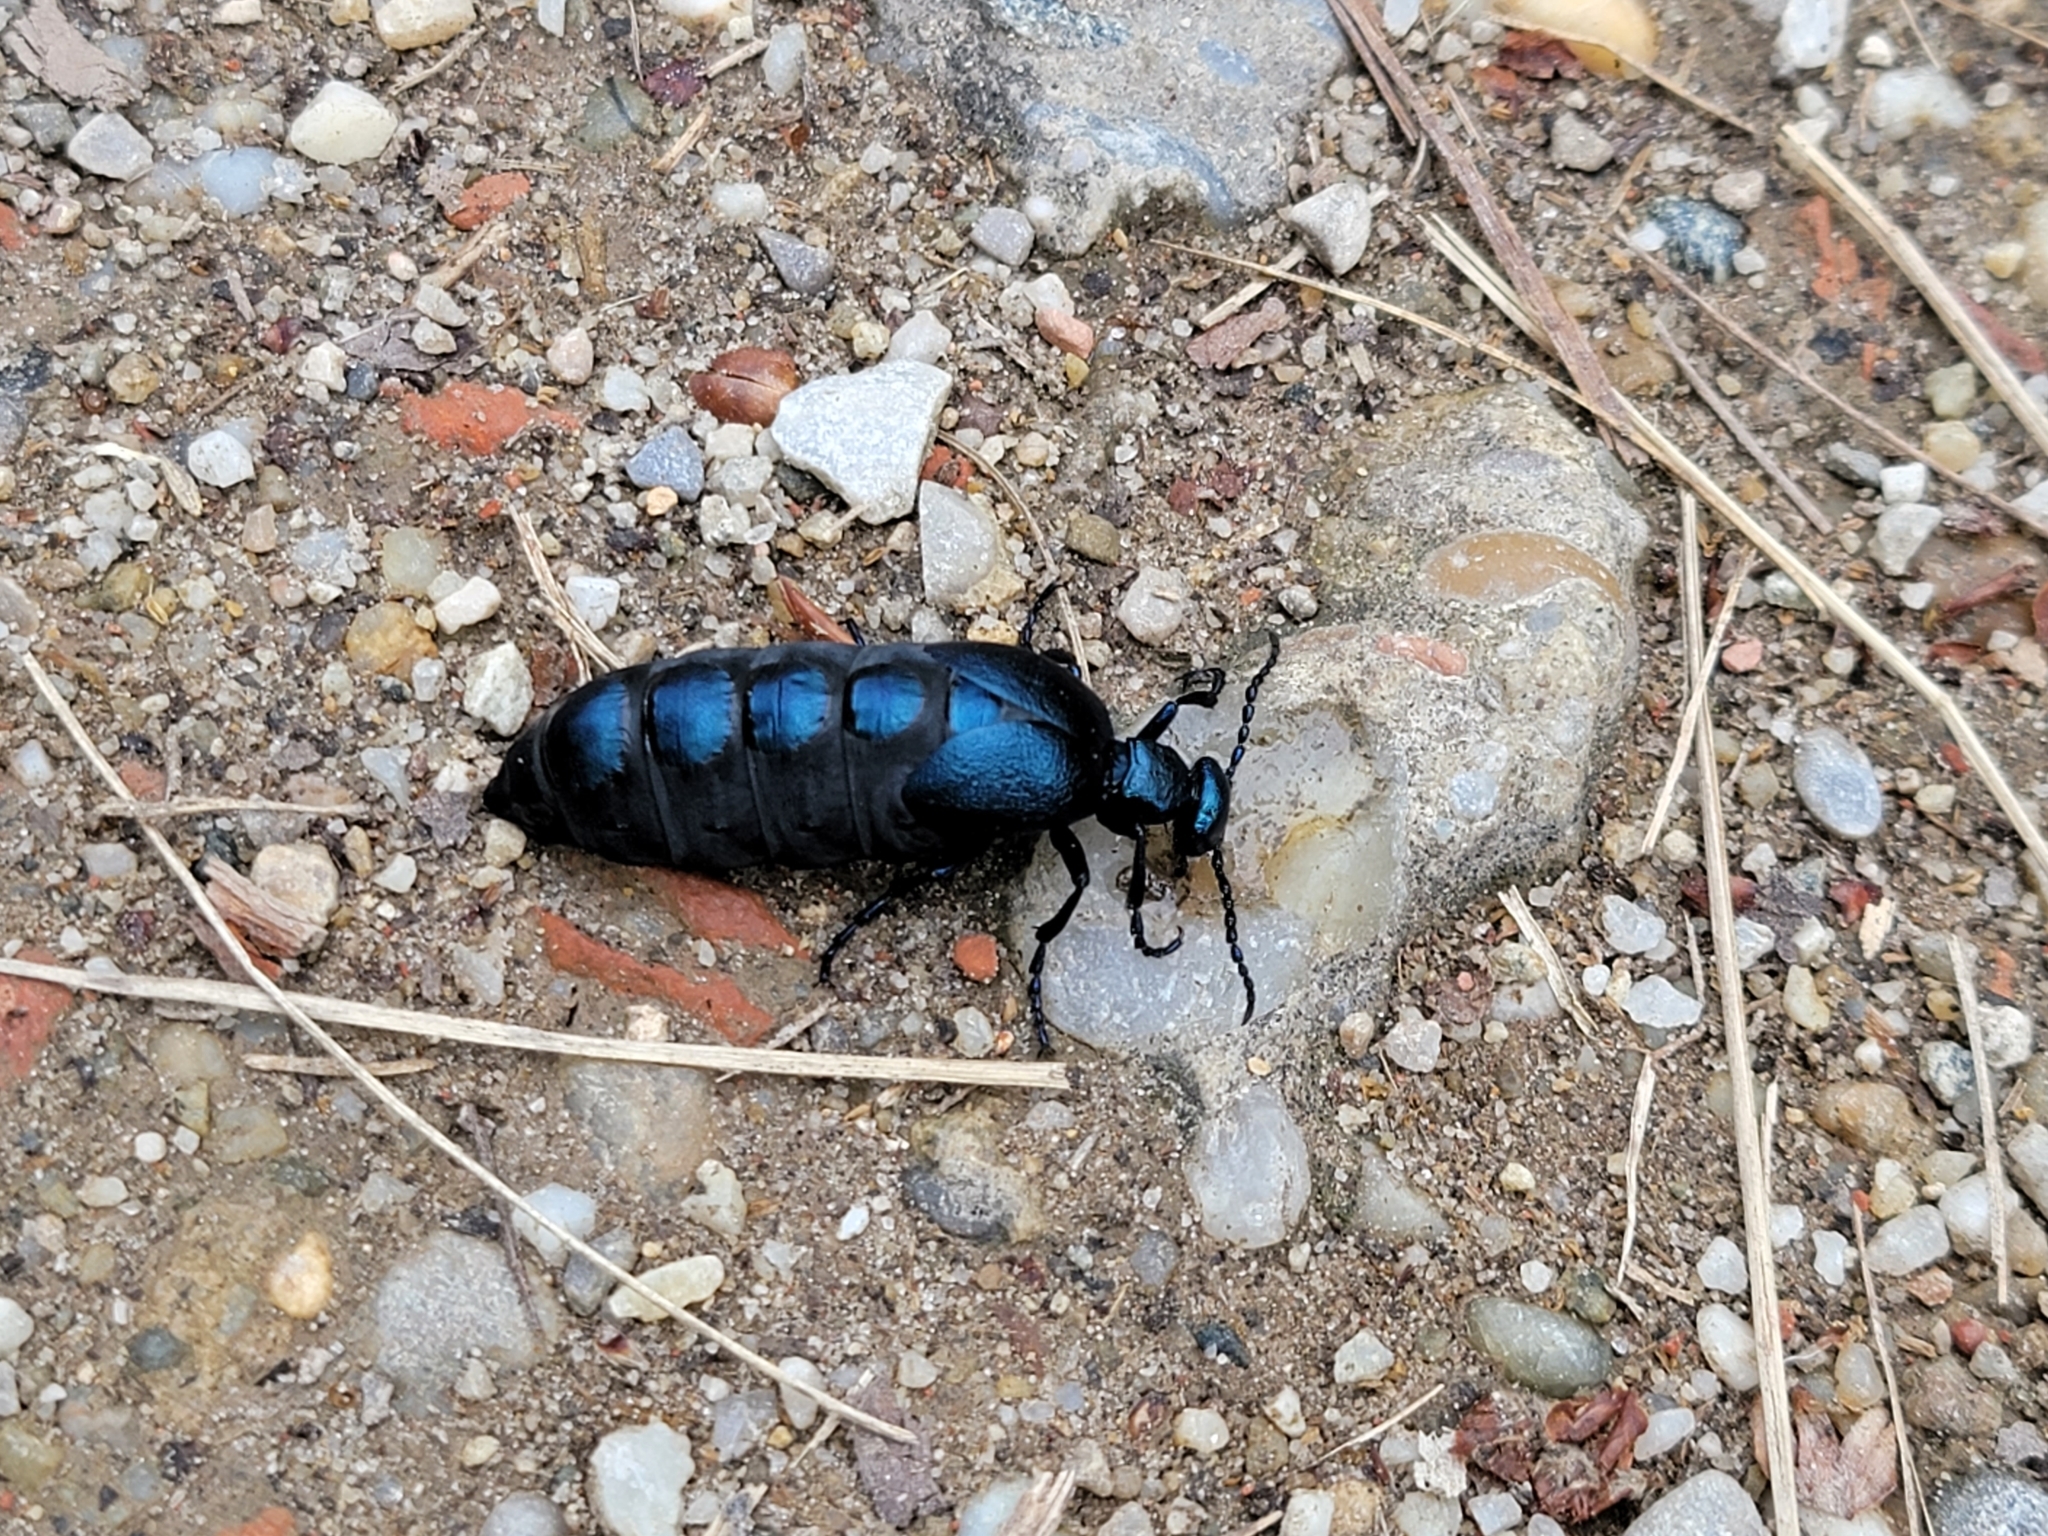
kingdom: Animalia
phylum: Arthropoda
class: Insecta
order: Coleoptera
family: Meloidae
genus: Meloe
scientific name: Meloe violaceus
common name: Violet oil-beetle
